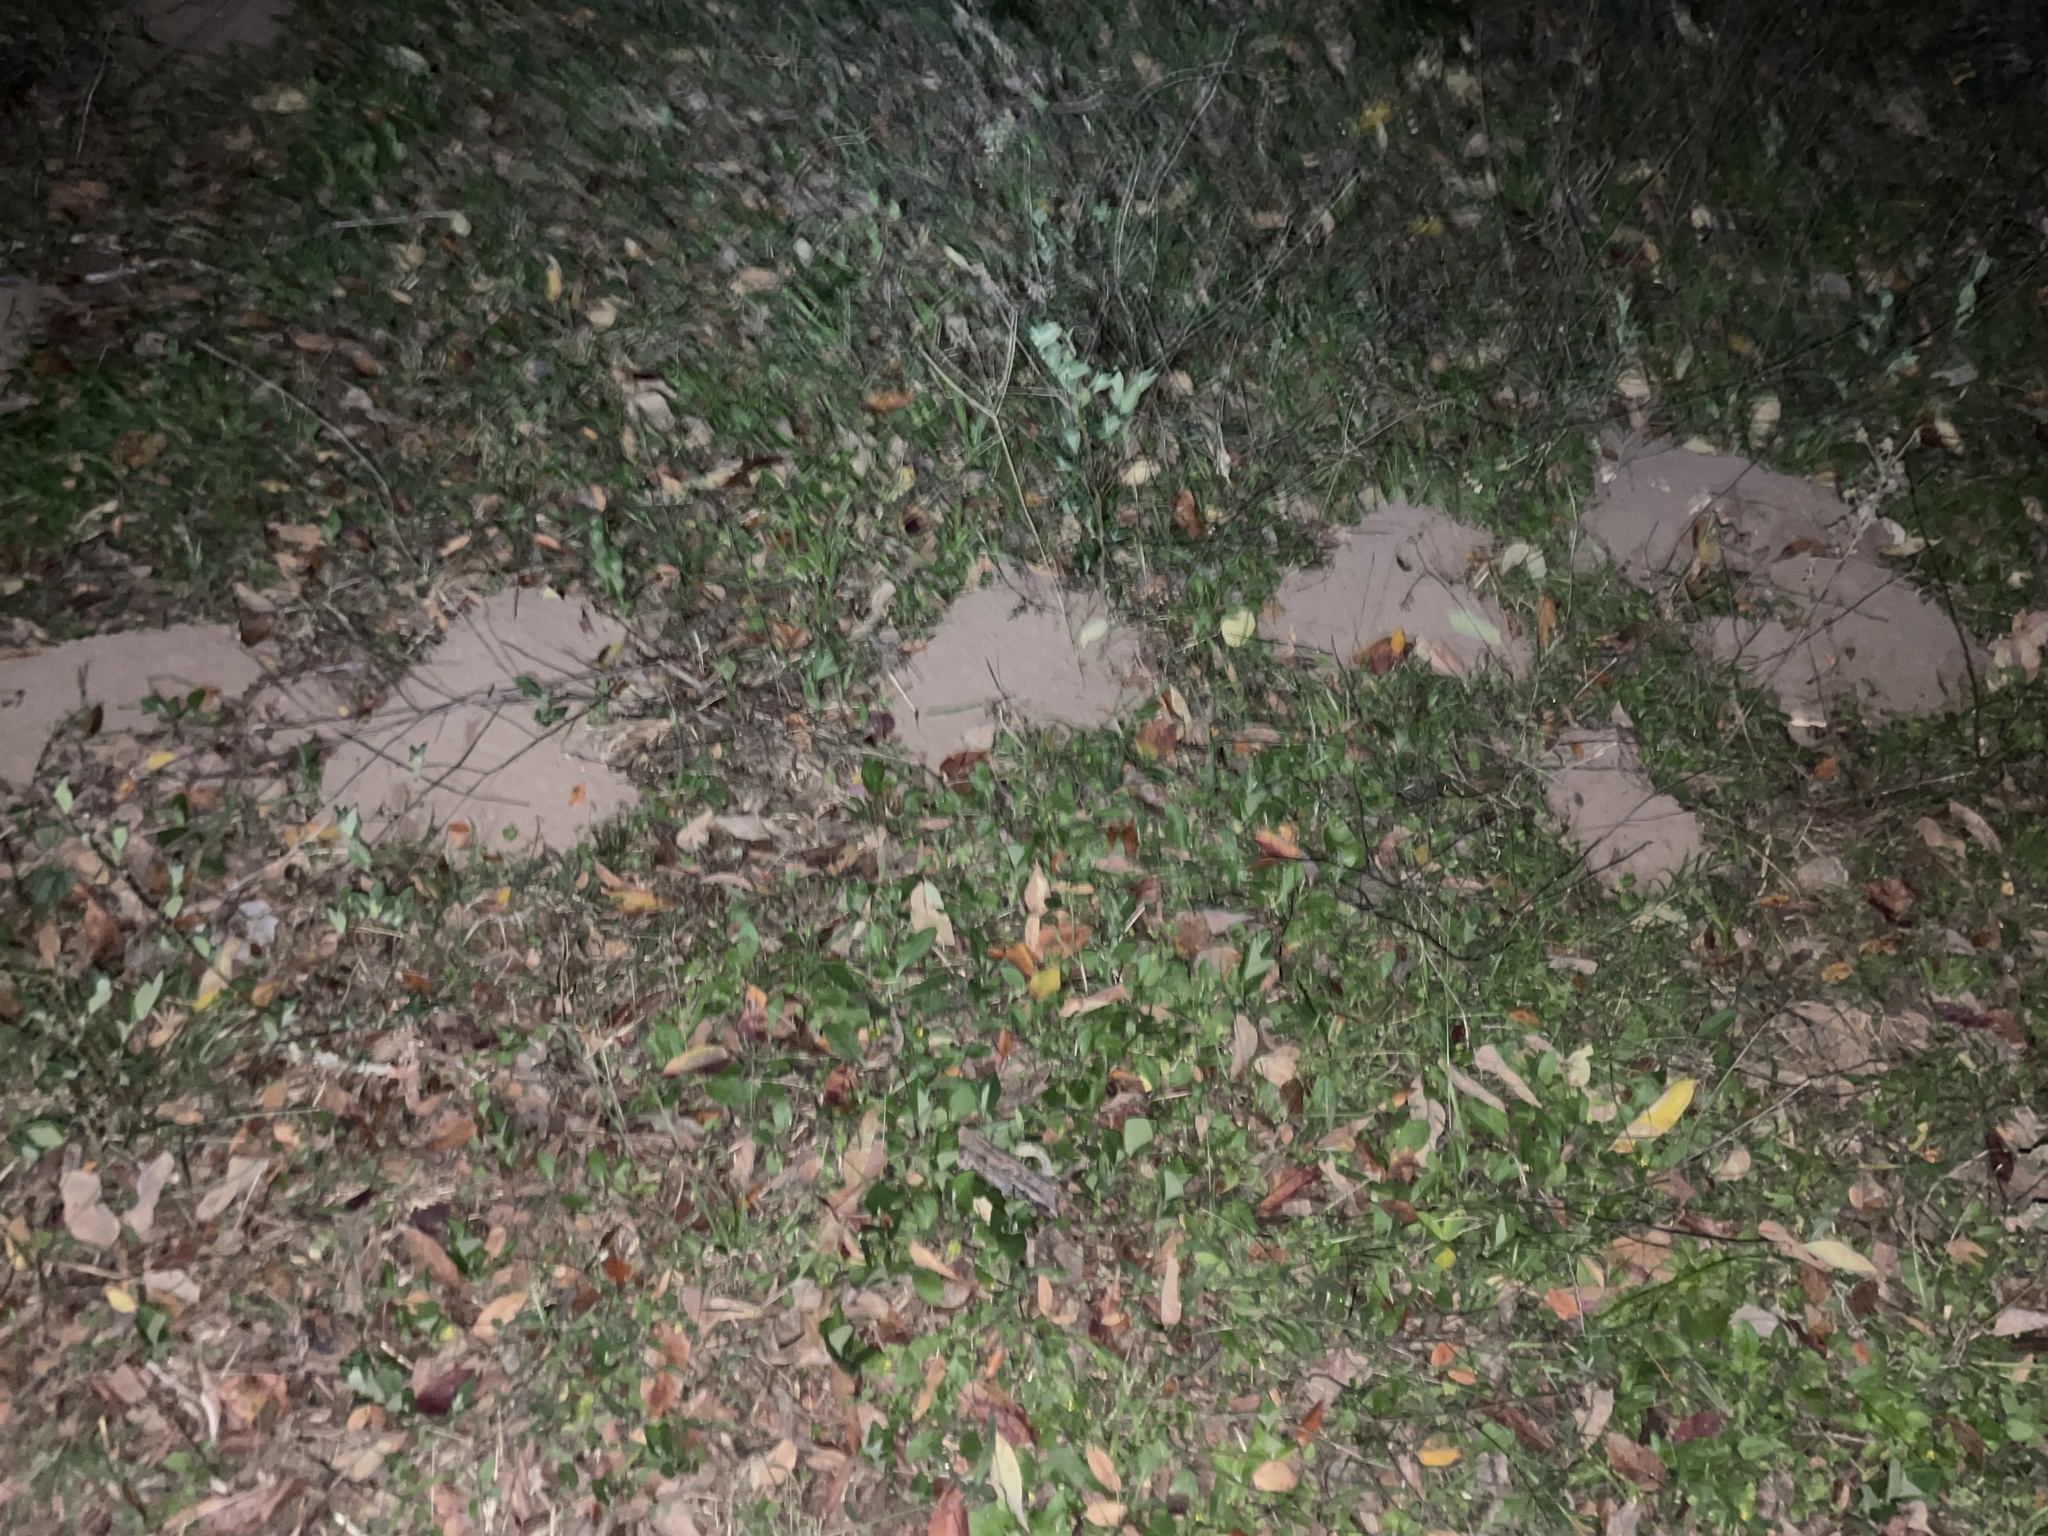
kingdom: Animalia
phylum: Chordata
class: Mammalia
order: Rodentia
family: Geomyidae
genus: Geomys
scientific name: Geomys attwateri
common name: Attwater's pocket gopher
